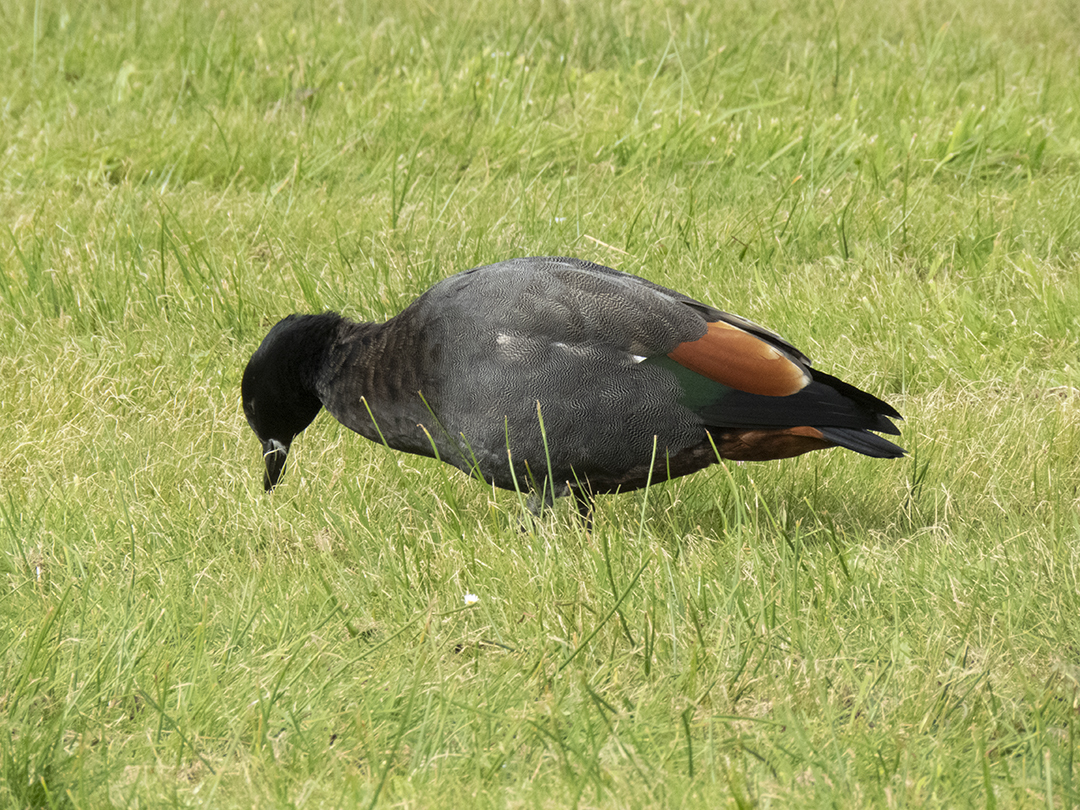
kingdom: Animalia
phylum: Chordata
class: Aves
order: Anseriformes
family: Anatidae
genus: Tadorna
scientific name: Tadorna variegata
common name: Paradise shelduck
